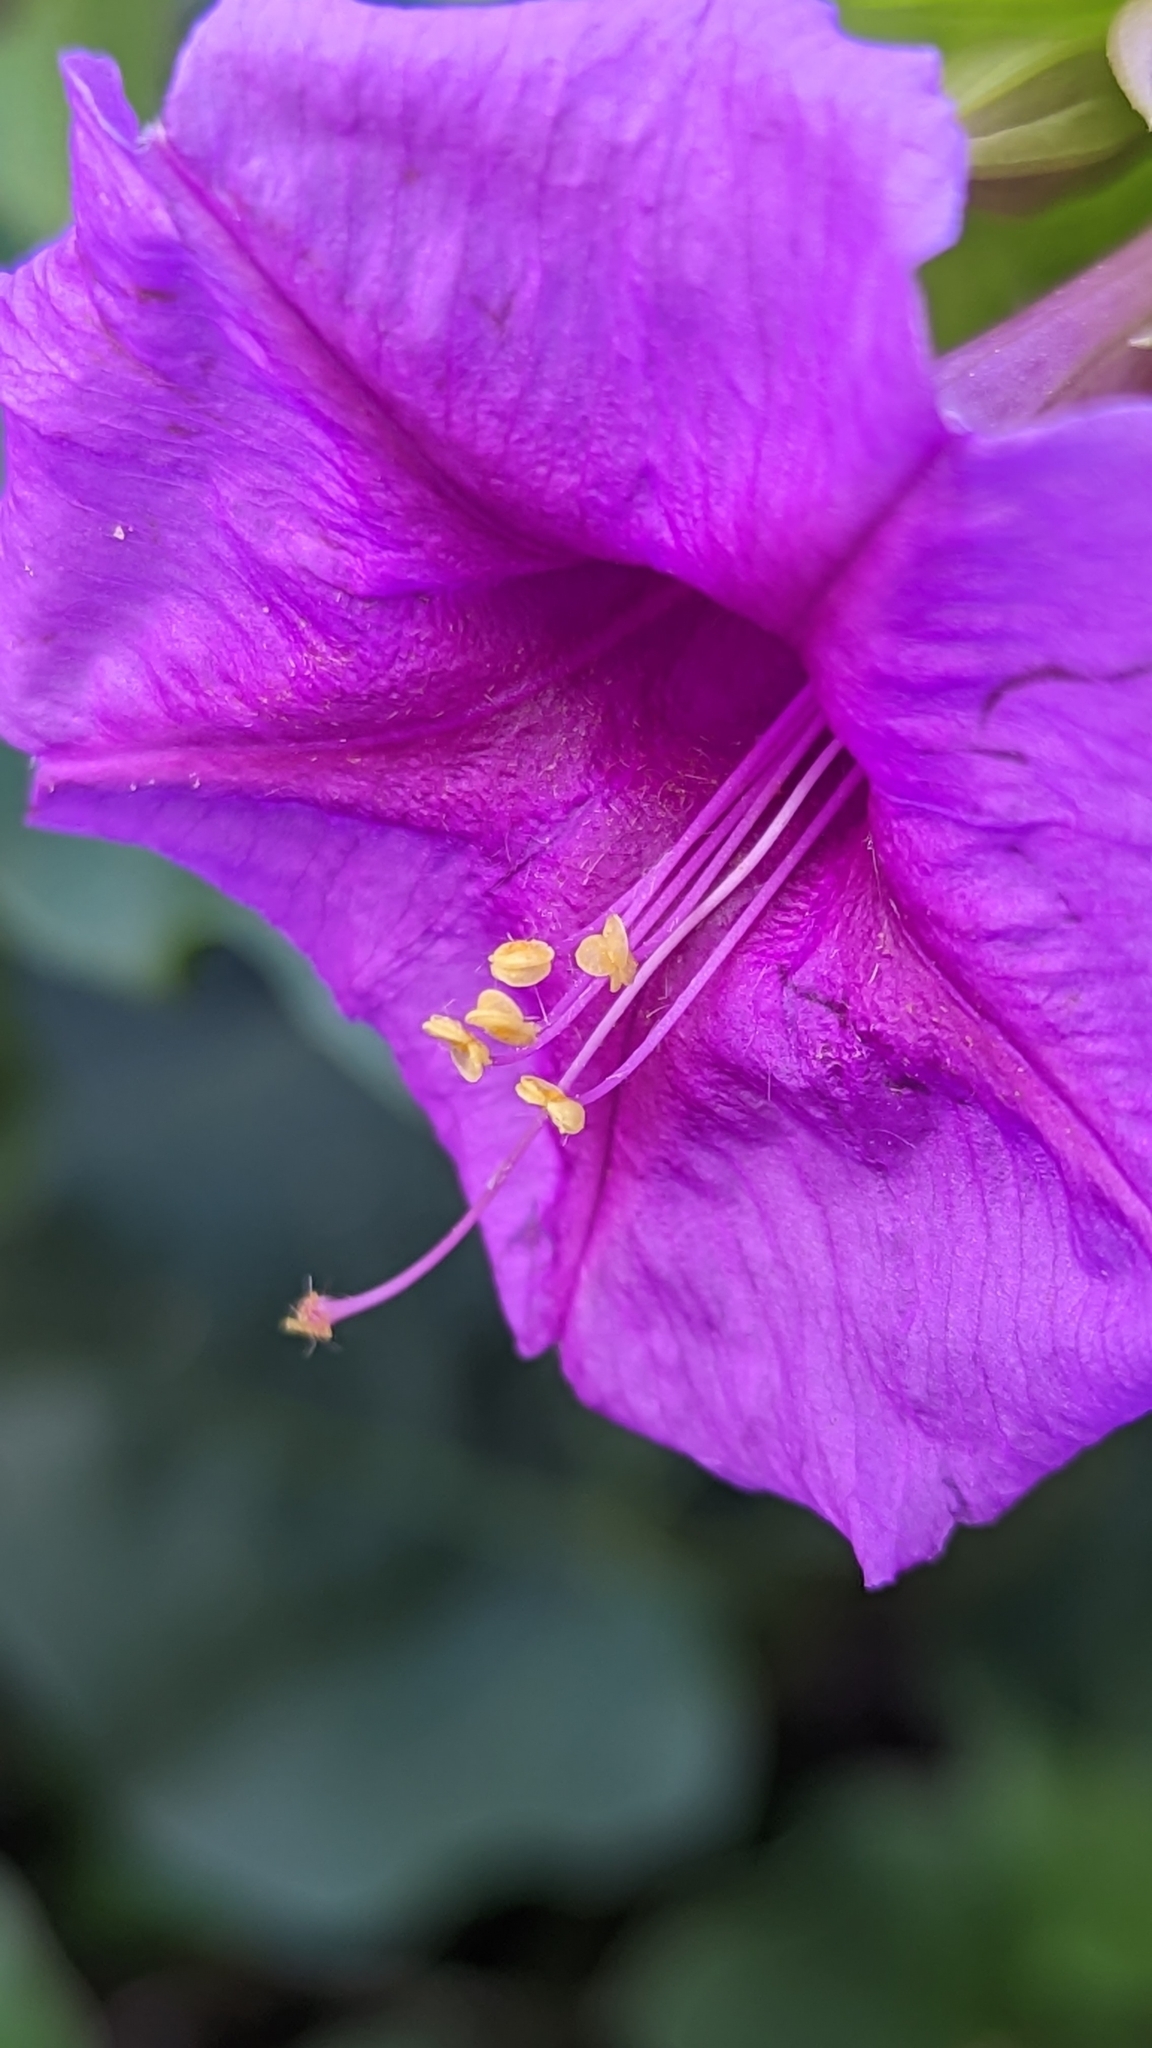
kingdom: Plantae
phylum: Tracheophyta
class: Magnoliopsida
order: Caryophyllales
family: Nyctaginaceae
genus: Mirabilis
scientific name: Mirabilis multiflora
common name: Froebel's four-o'clock
